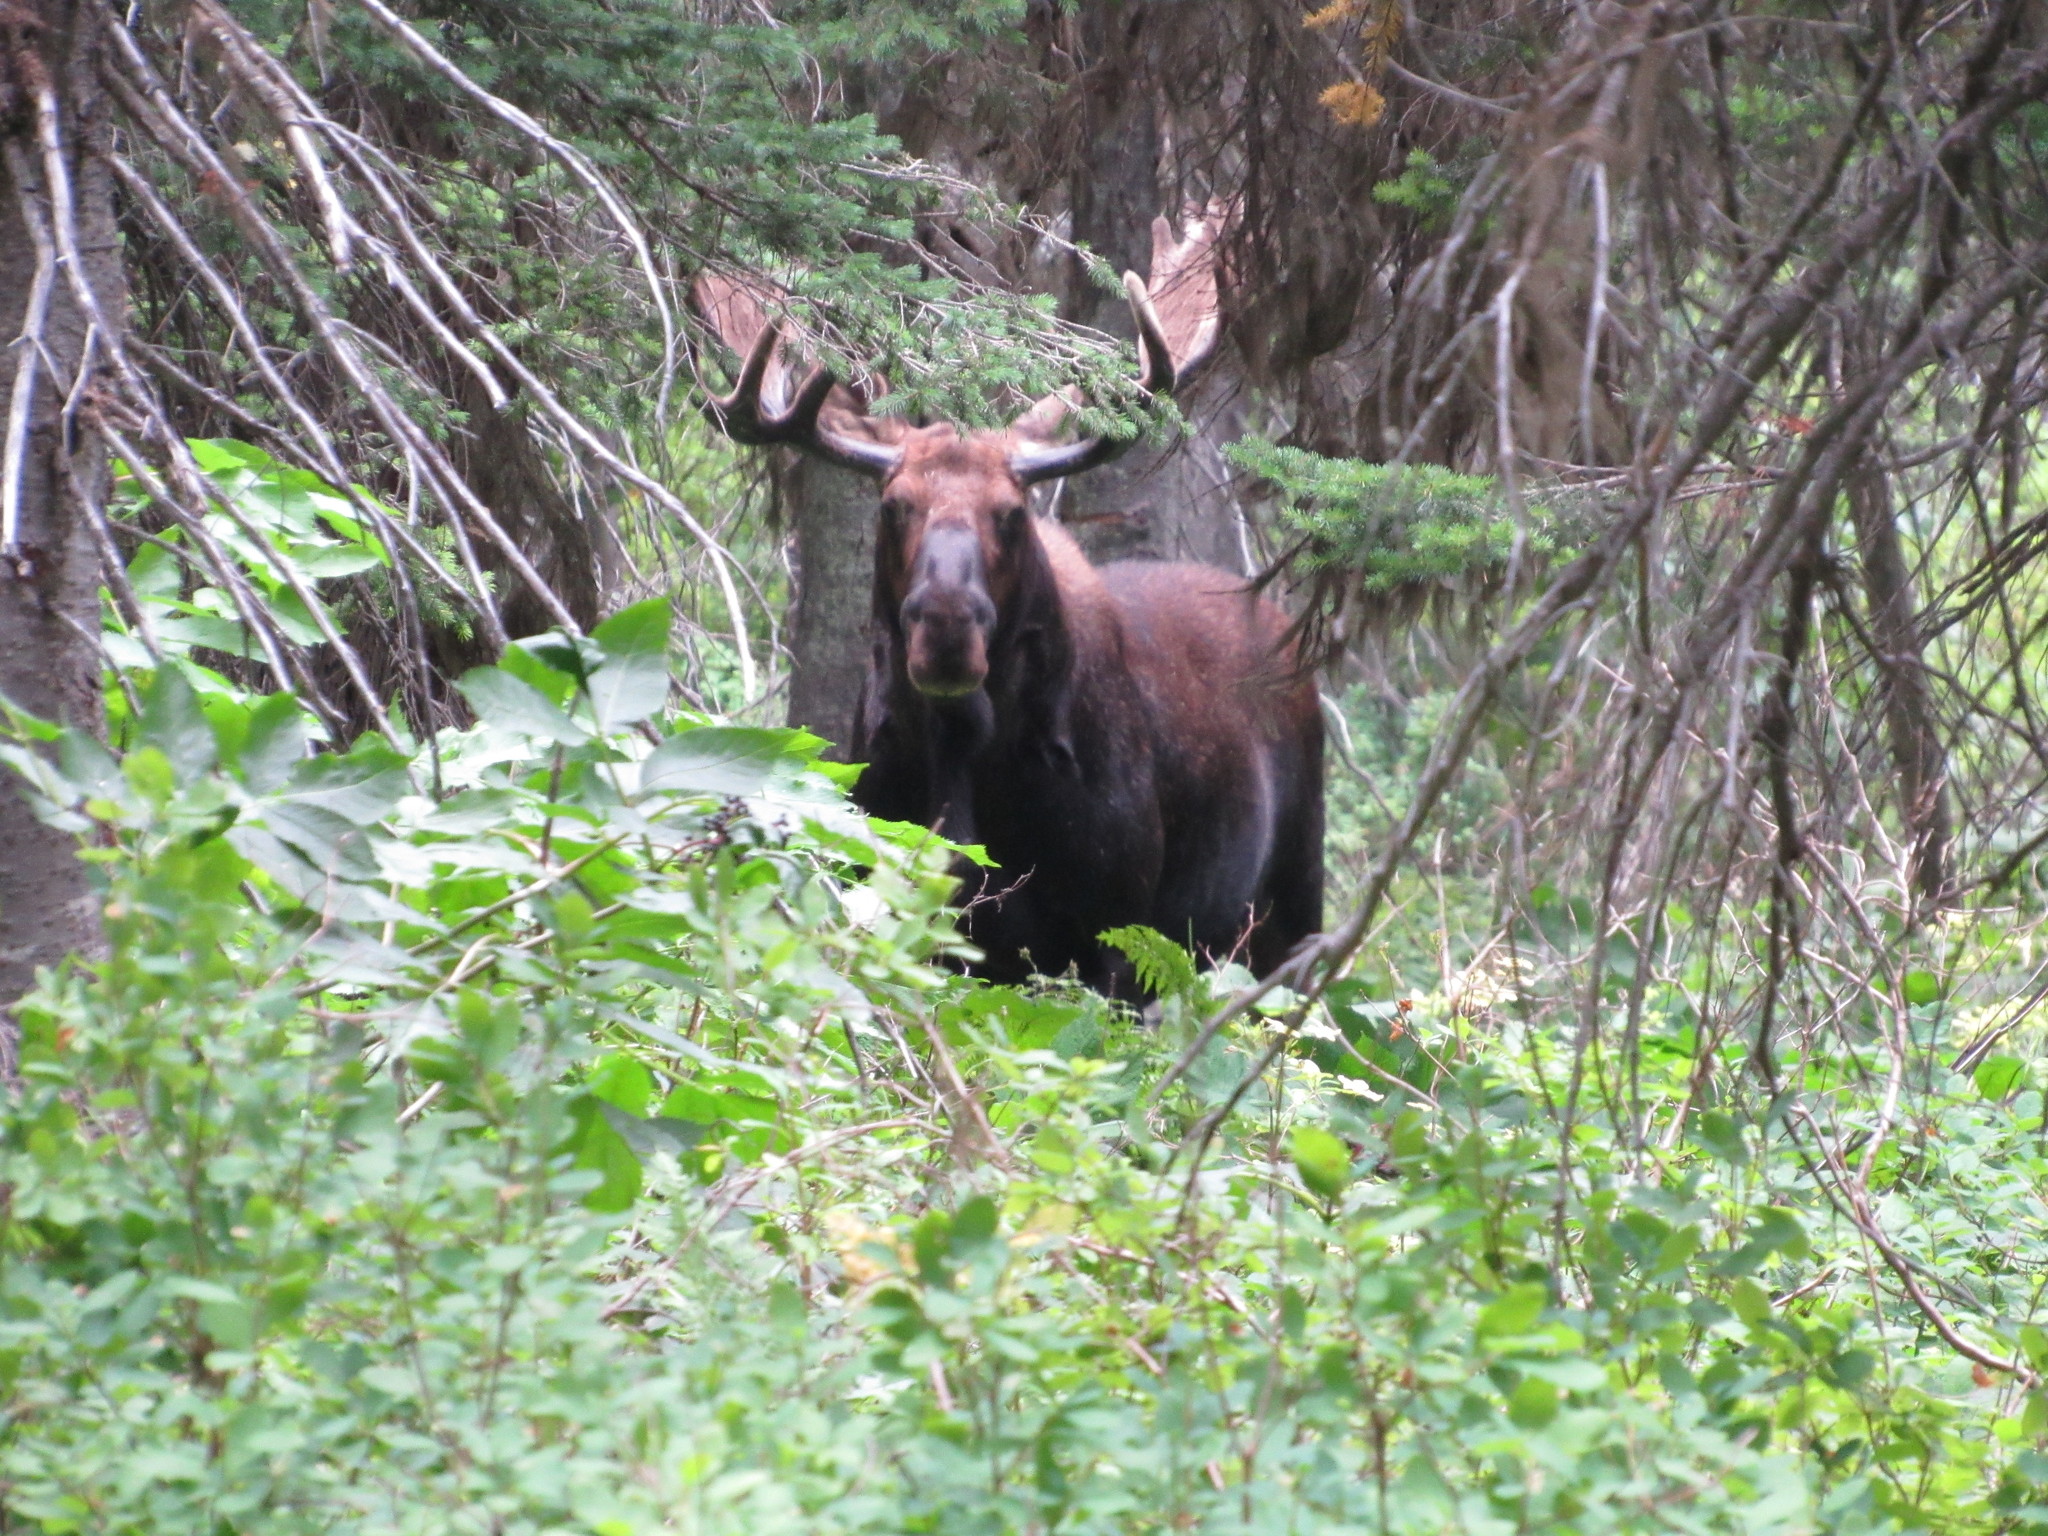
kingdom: Animalia
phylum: Chordata
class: Mammalia
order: Artiodactyla
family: Cervidae
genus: Alces
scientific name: Alces alces
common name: Moose
